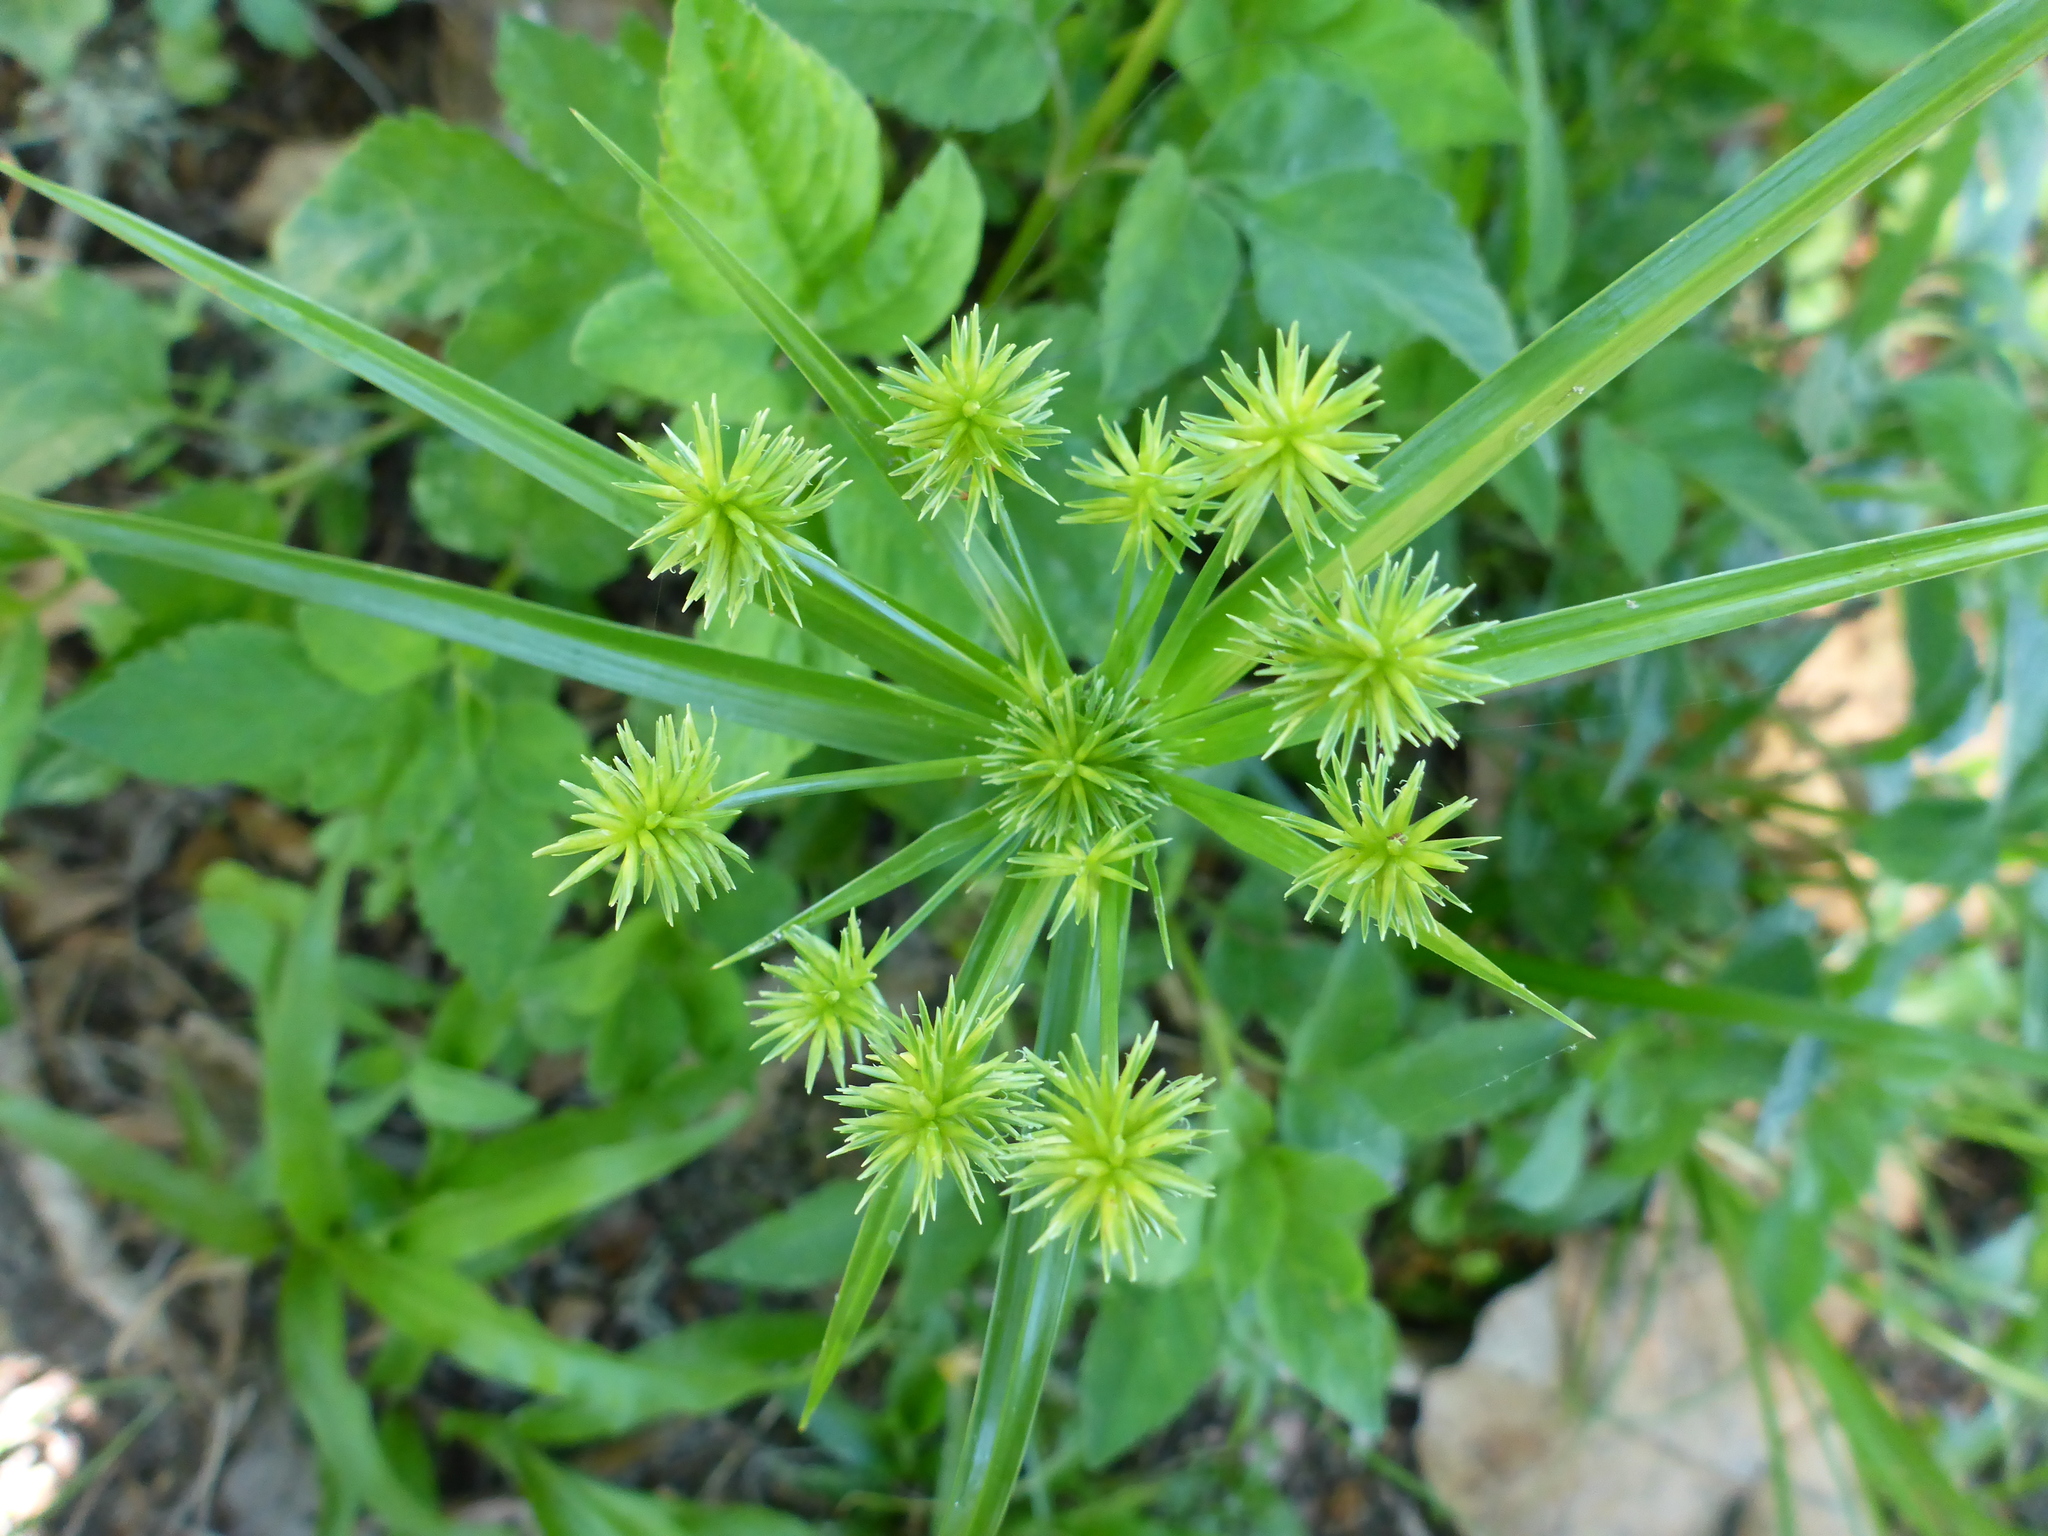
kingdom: Plantae
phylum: Tracheophyta
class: Liliopsida
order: Poales
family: Cyperaceae
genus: Cyperus
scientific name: Cyperus croceus
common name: Baldwin's flatsedge
